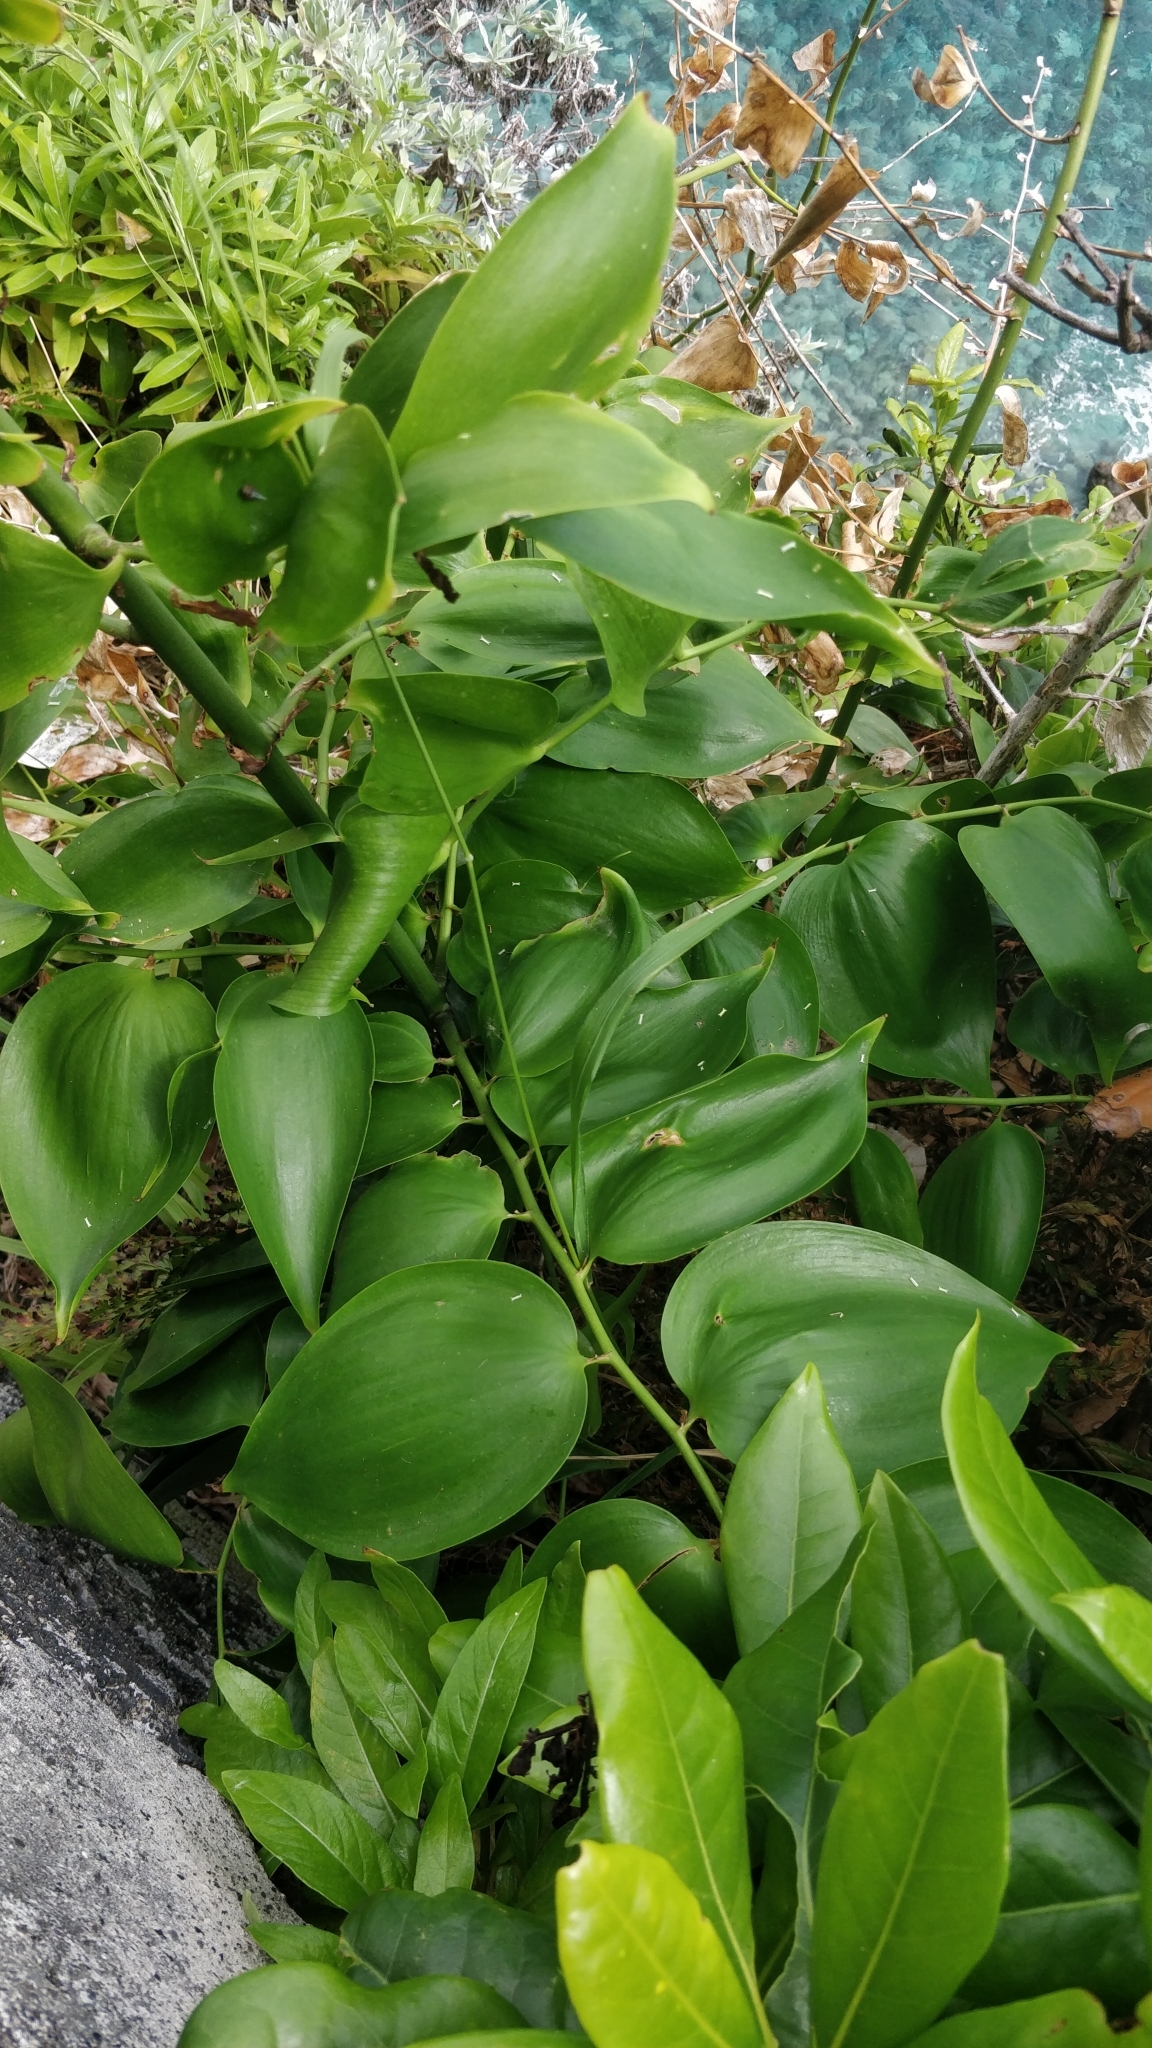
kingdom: Plantae
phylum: Tracheophyta
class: Liliopsida
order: Asparagales
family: Asparagaceae
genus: Semele
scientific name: Semele androgyna
